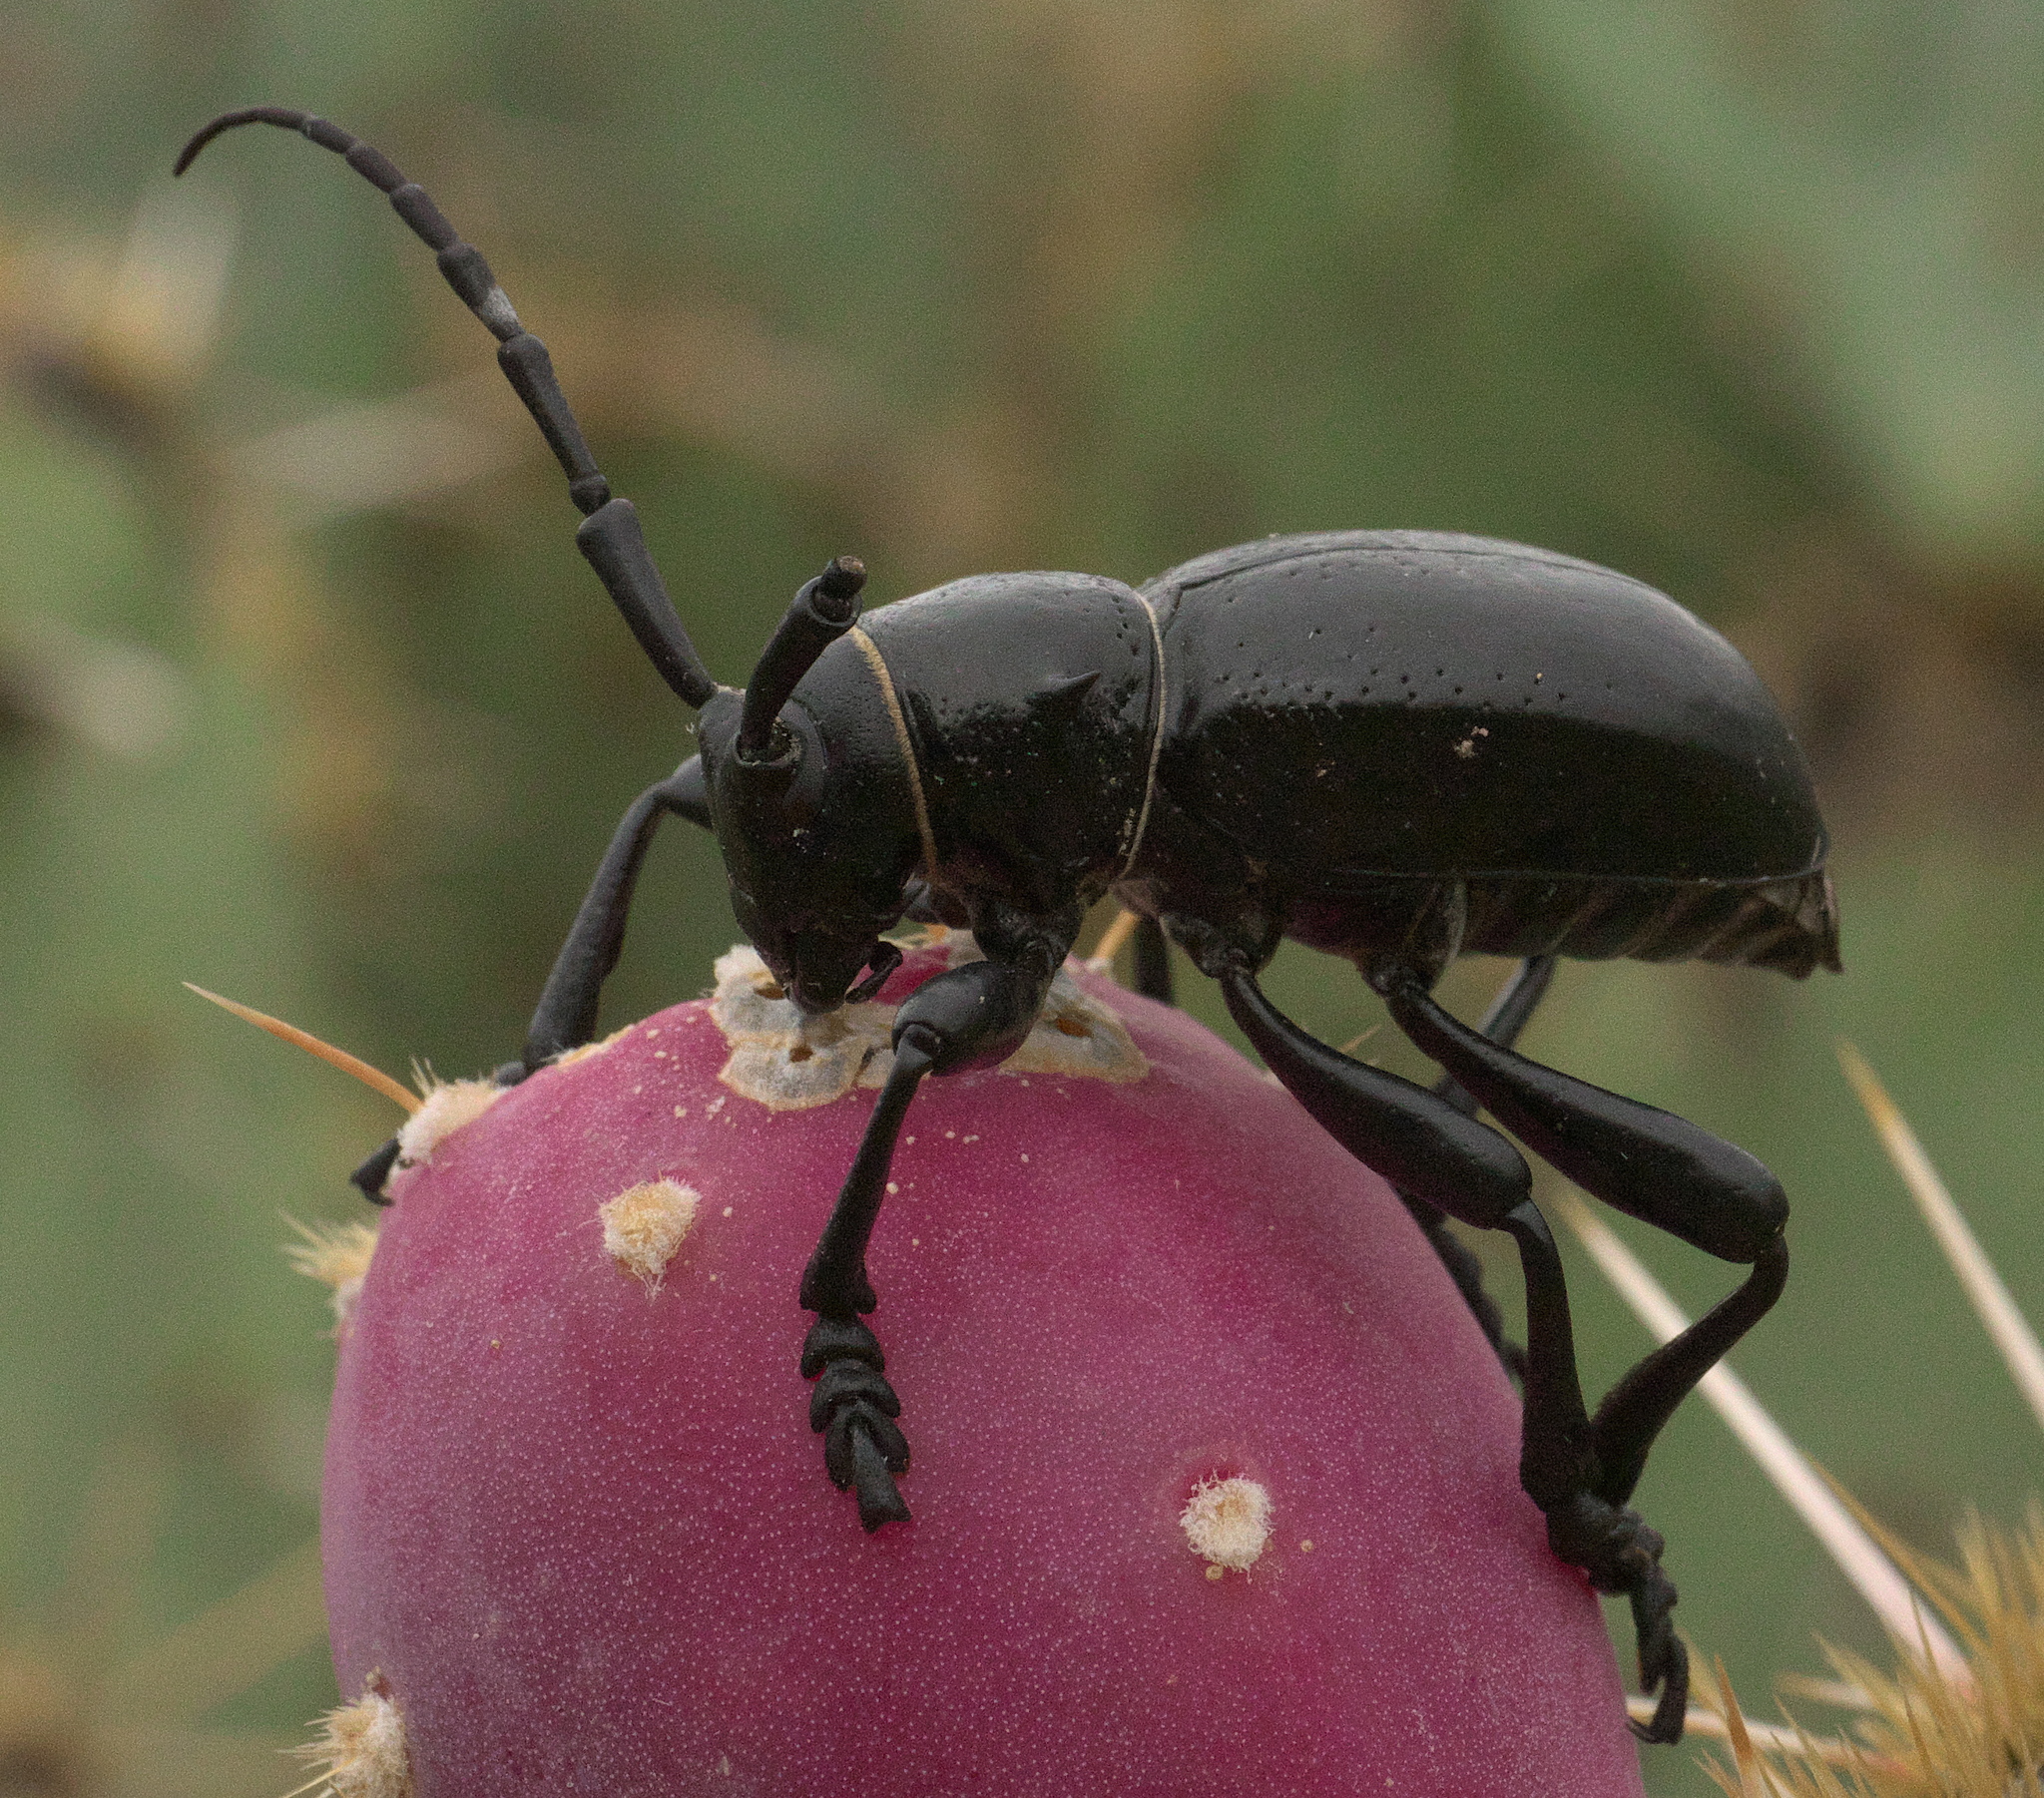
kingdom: Animalia
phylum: Arthropoda
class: Insecta
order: Coleoptera
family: Cerambycidae
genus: Moneilema
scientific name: Moneilema gigas
